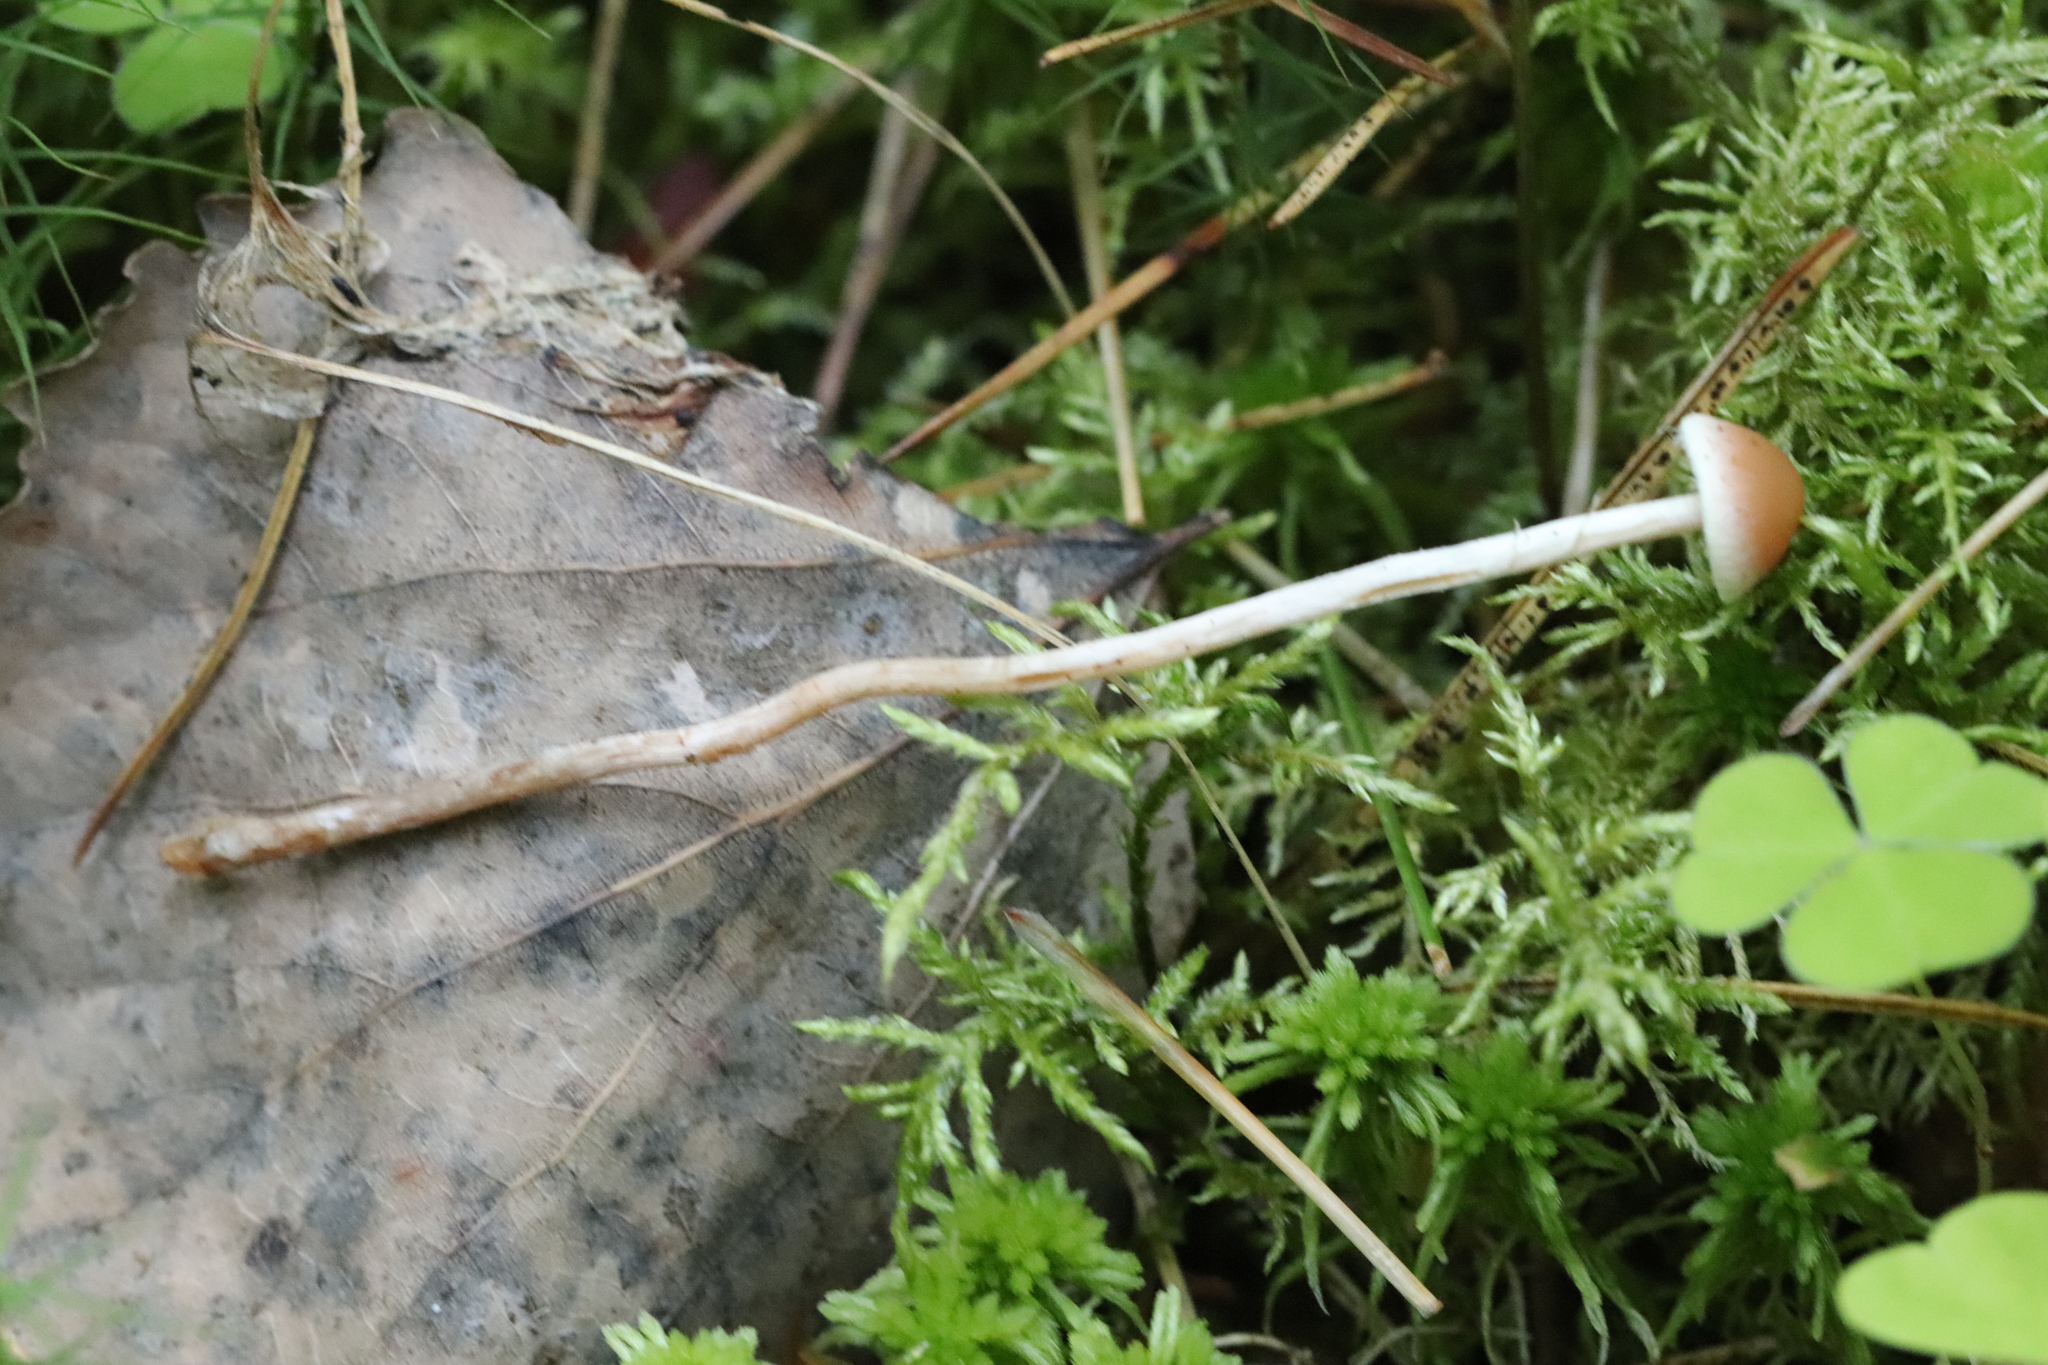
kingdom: Fungi
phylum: Basidiomycota
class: Agaricomycetes
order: Agaricales
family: Strophariaceae
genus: Hypholoma
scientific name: Hypholoma polytrichi
